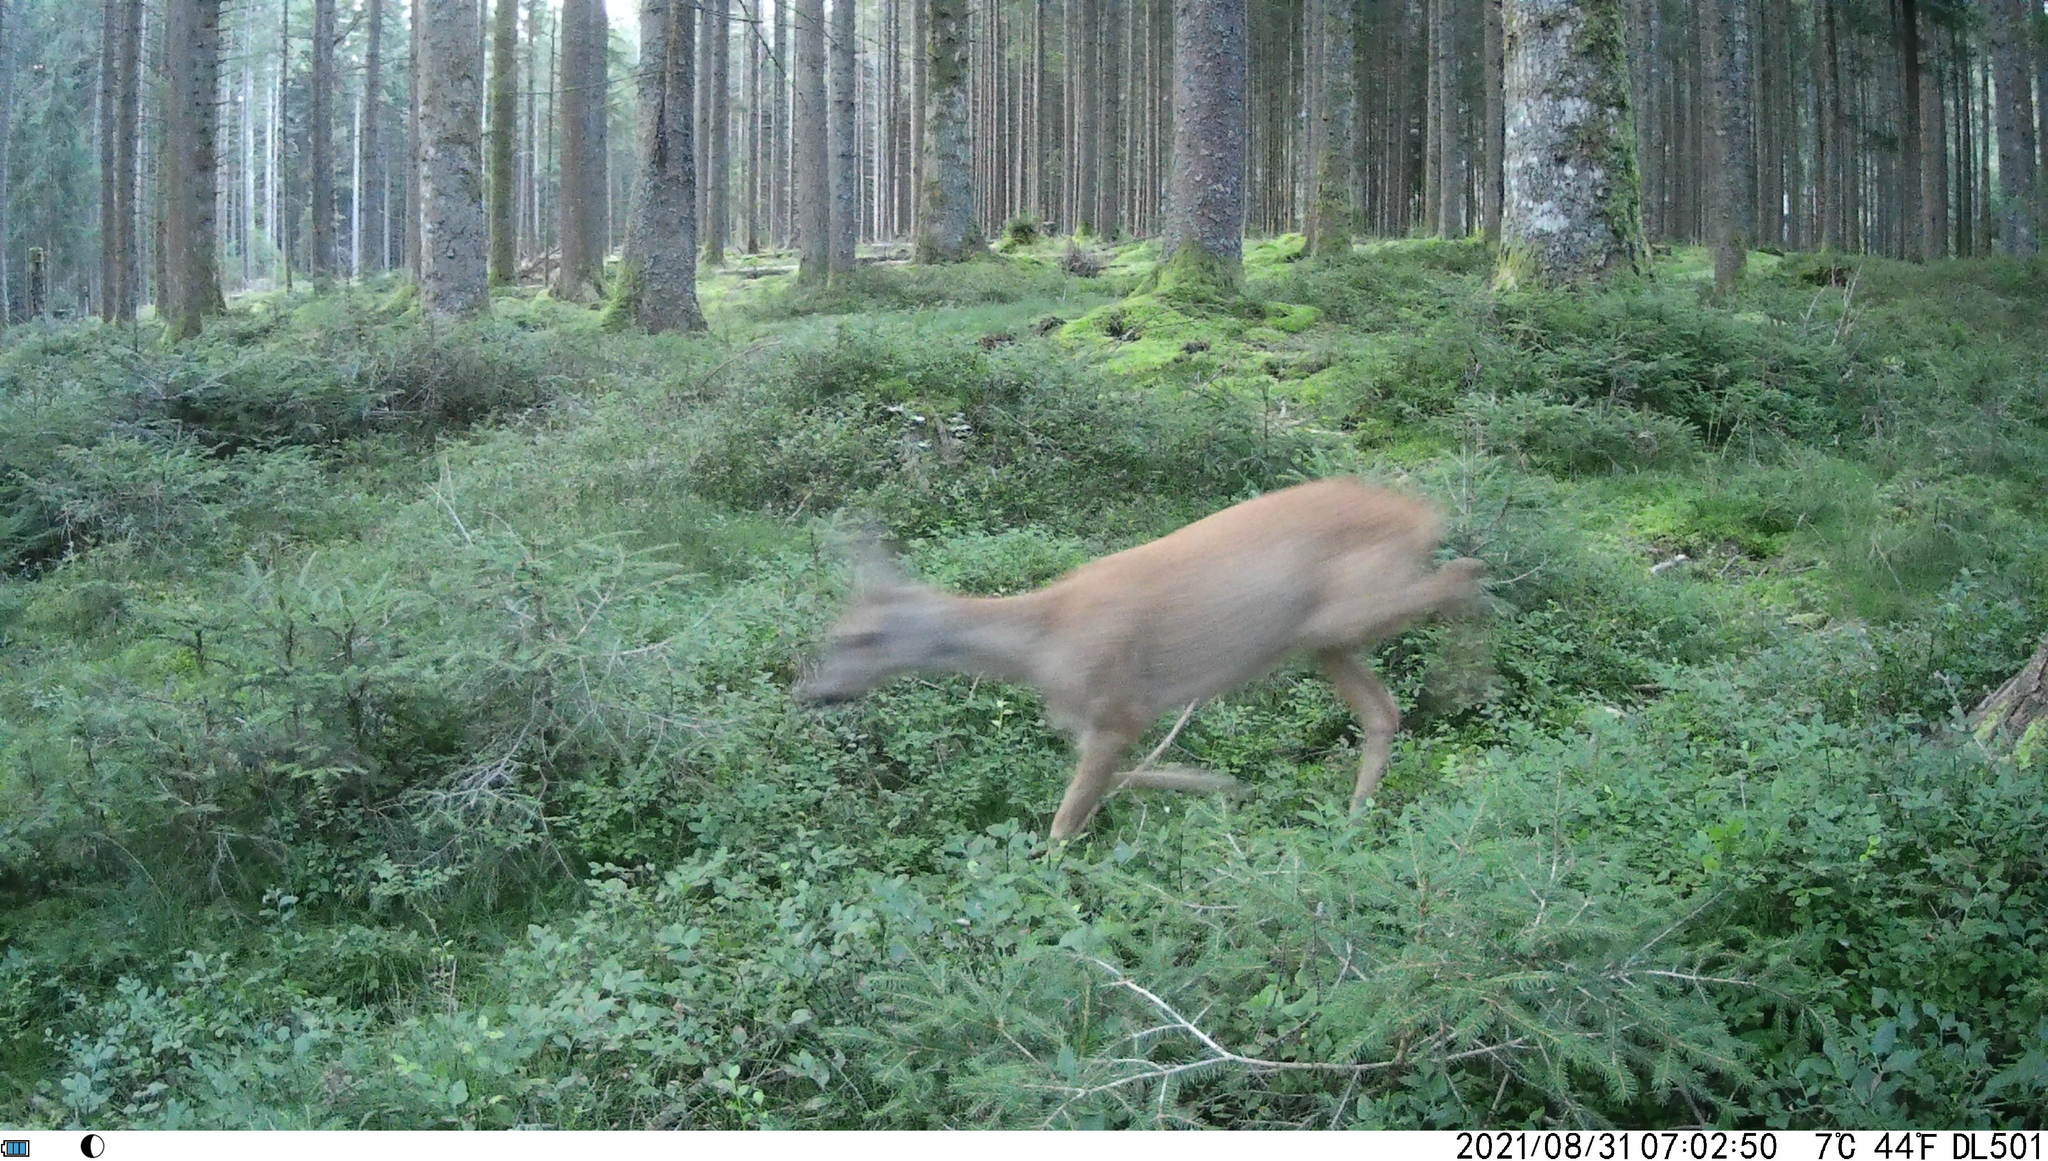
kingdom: Animalia
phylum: Chordata
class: Mammalia
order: Artiodactyla
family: Cervidae
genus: Capreolus
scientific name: Capreolus capreolus
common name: Western roe deer
